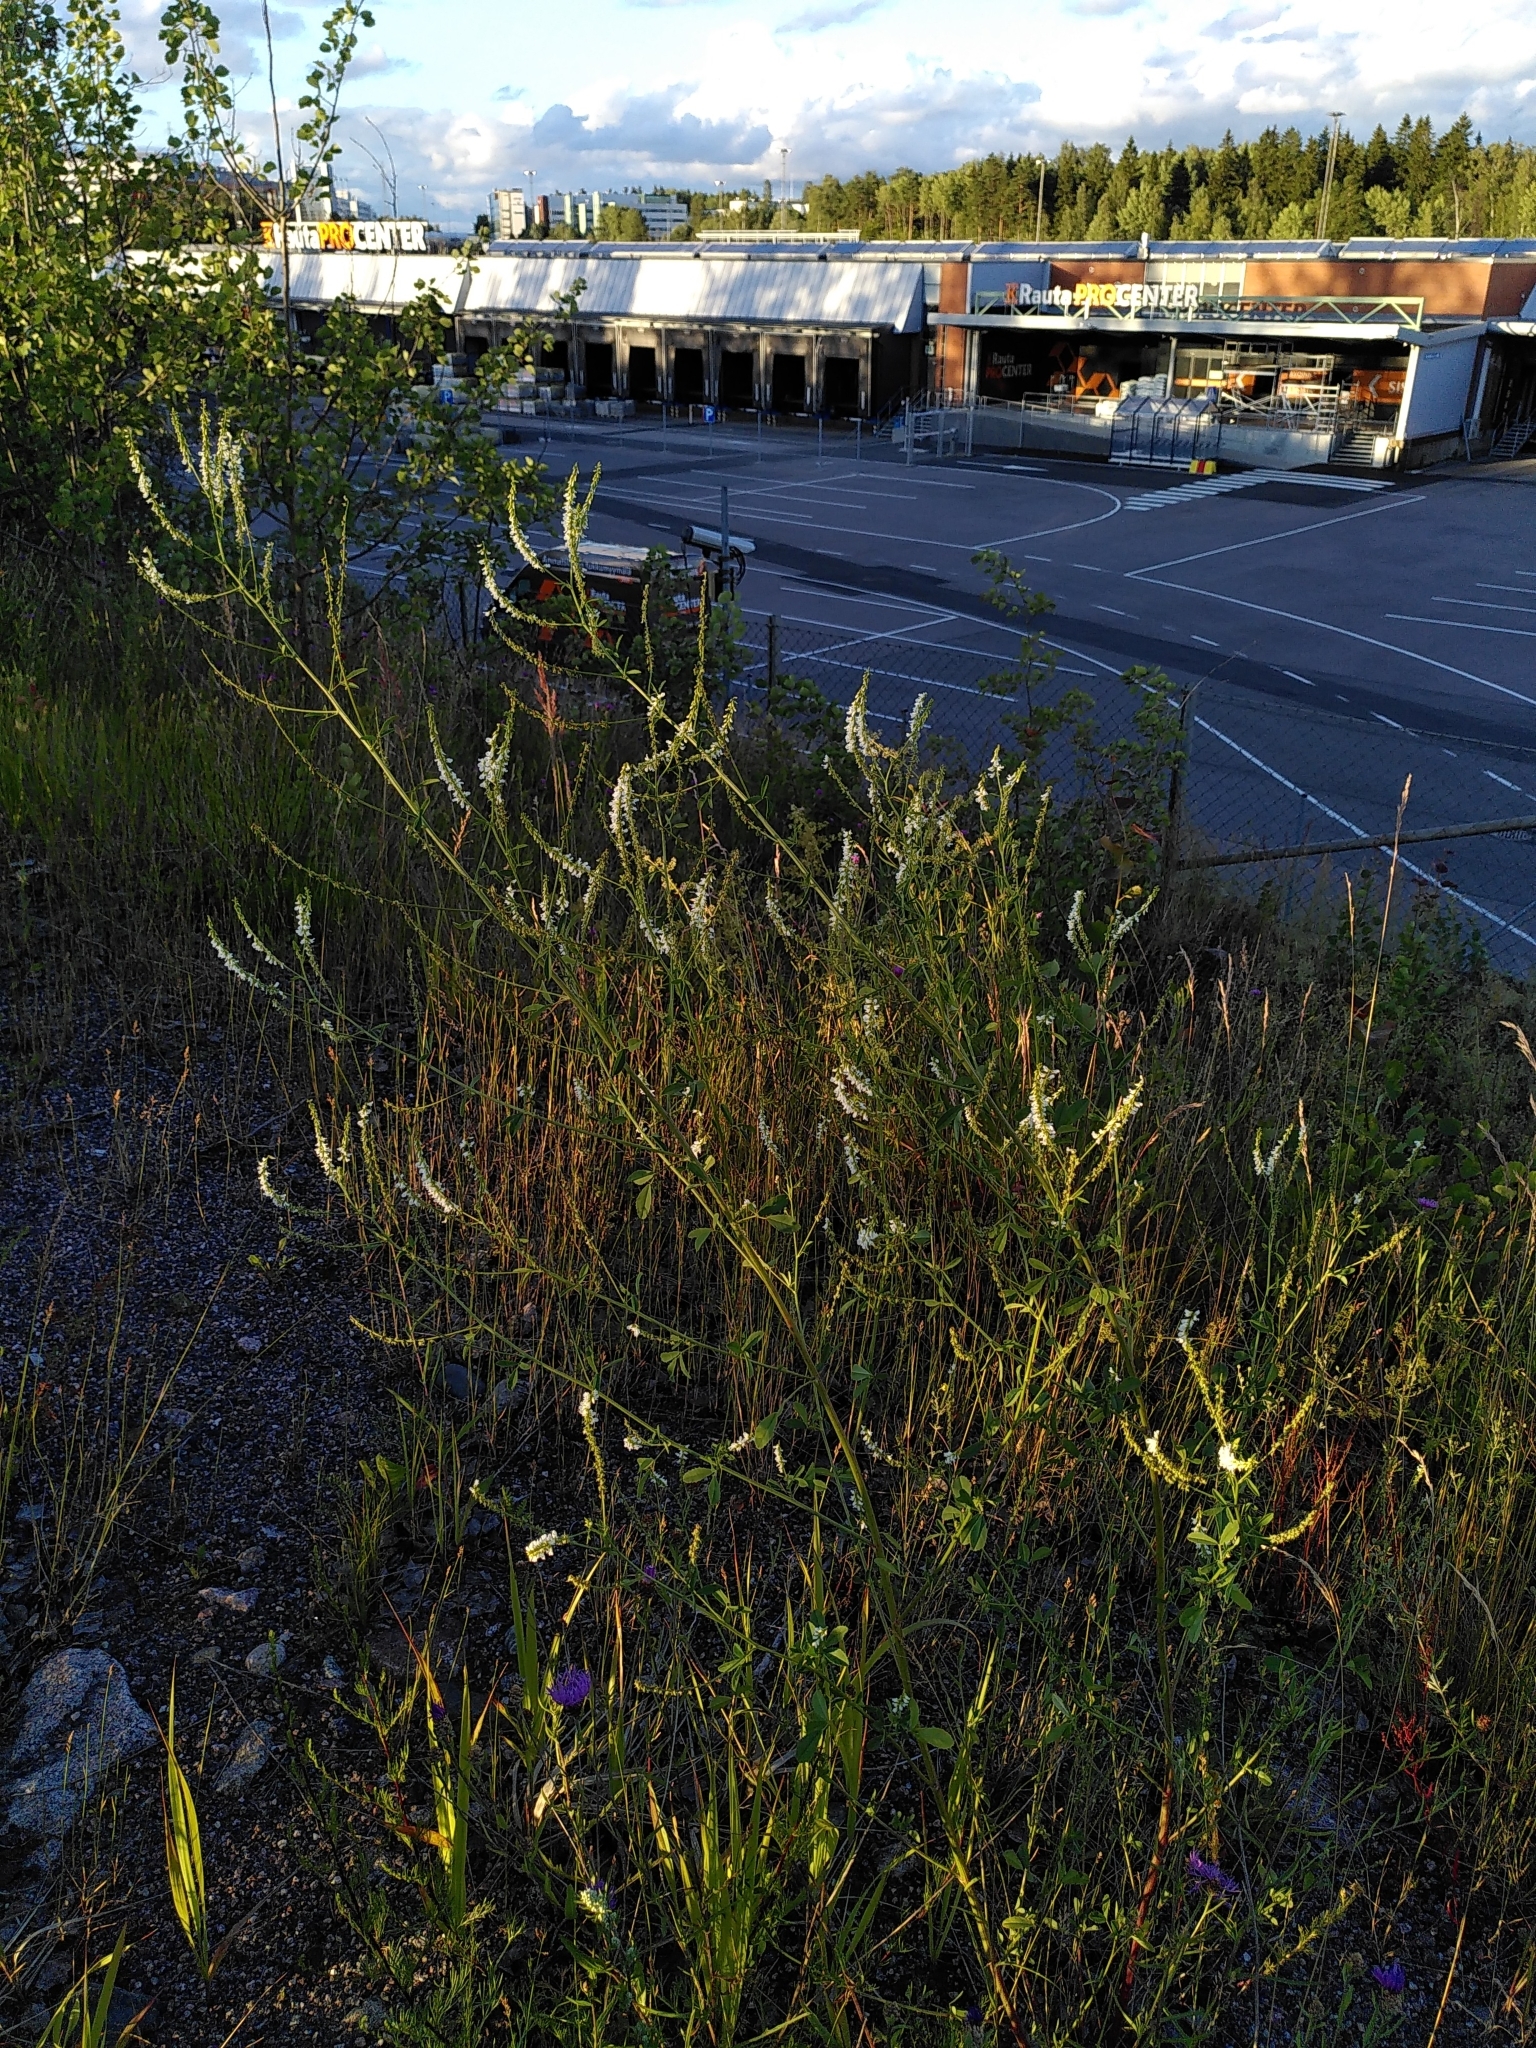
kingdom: Plantae
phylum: Tracheophyta
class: Magnoliopsida
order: Fabales
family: Fabaceae
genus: Melilotus
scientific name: Melilotus albus
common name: White melilot
